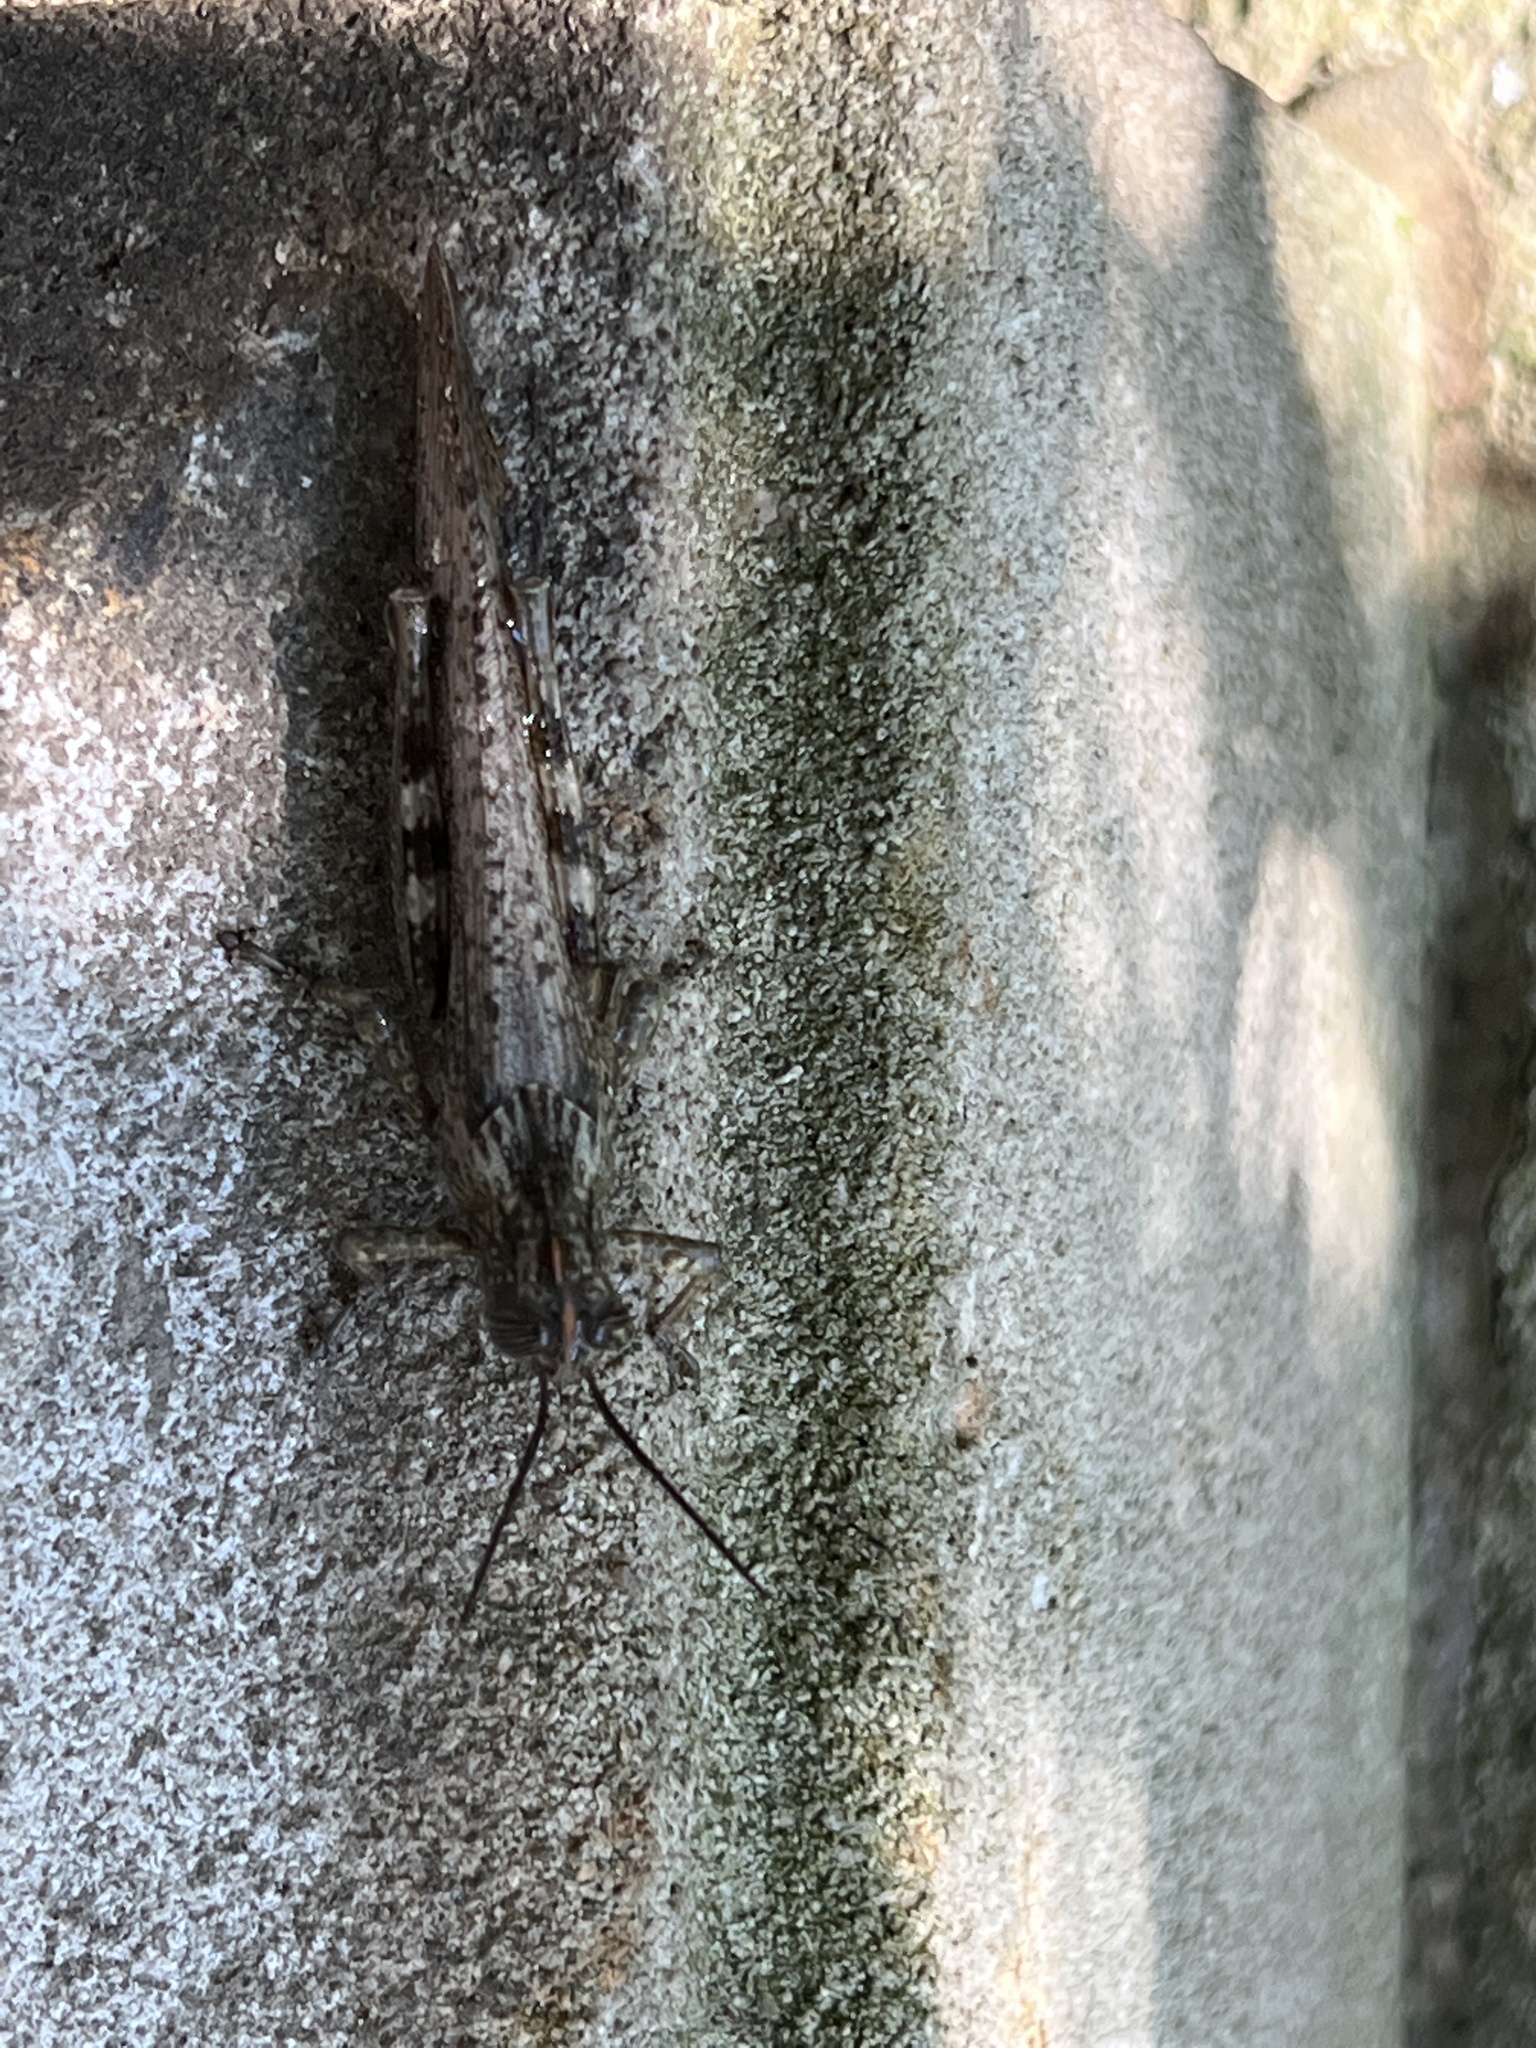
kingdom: Animalia
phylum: Arthropoda
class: Insecta
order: Orthoptera
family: Acrididae
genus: Anacridium
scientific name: Anacridium aegyptium
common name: Egyptian grasshopper
